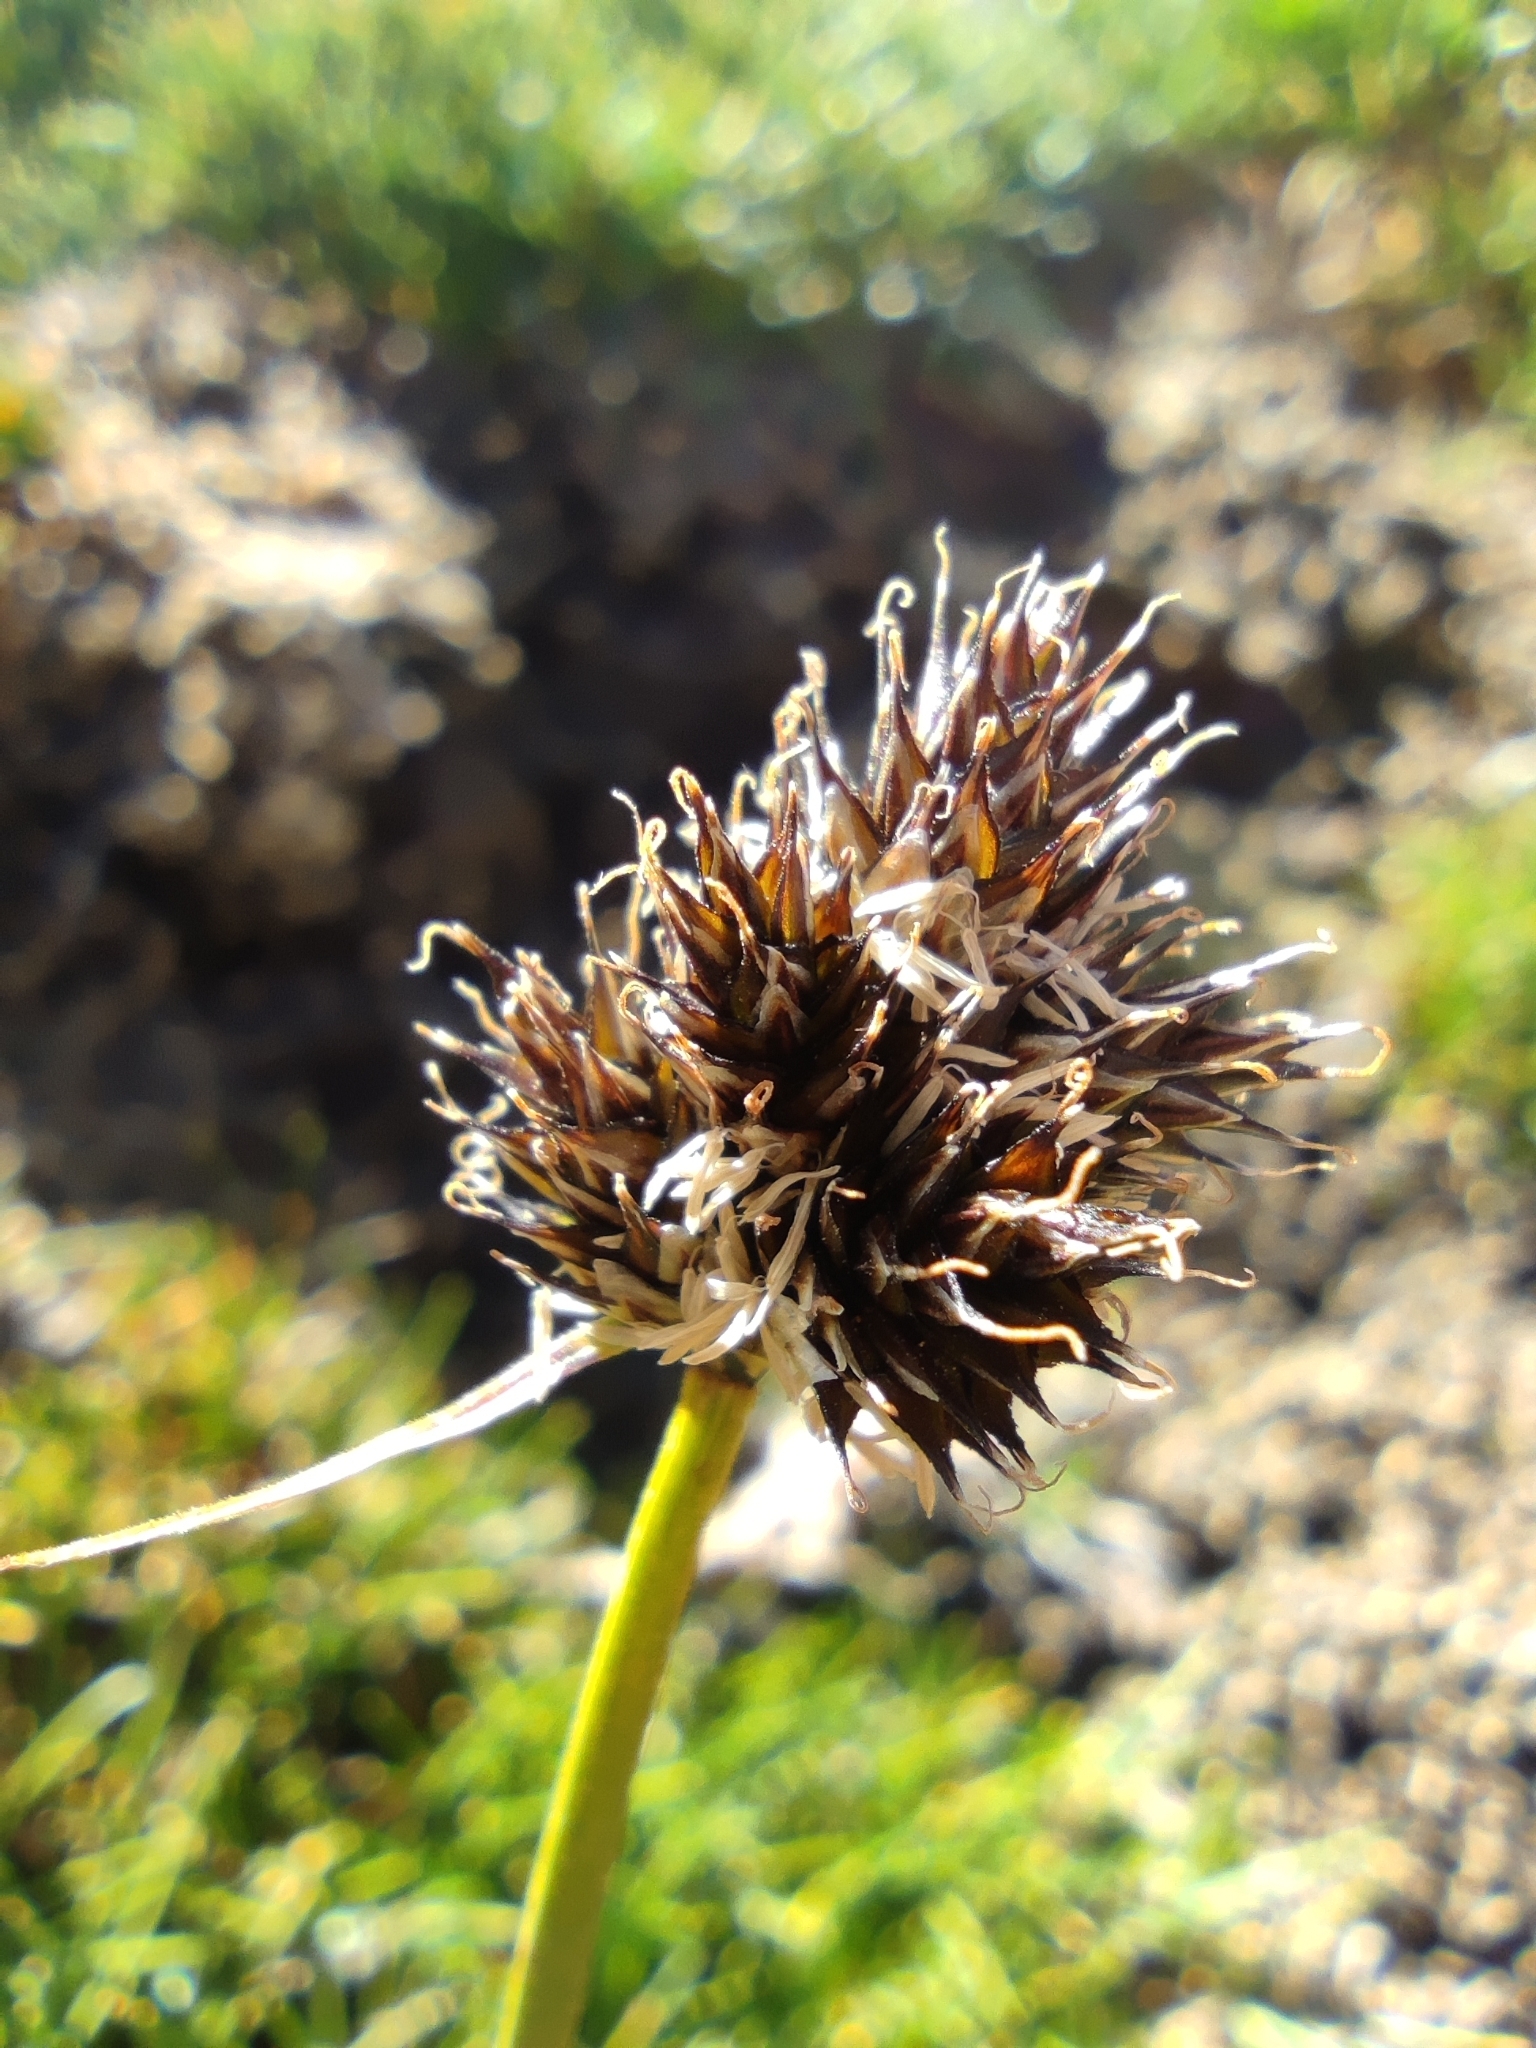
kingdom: Plantae
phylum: Tracheophyta
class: Liliopsida
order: Poales
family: Cyperaceae
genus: Carex
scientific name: Carex macloviana
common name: Falkland island sedge
